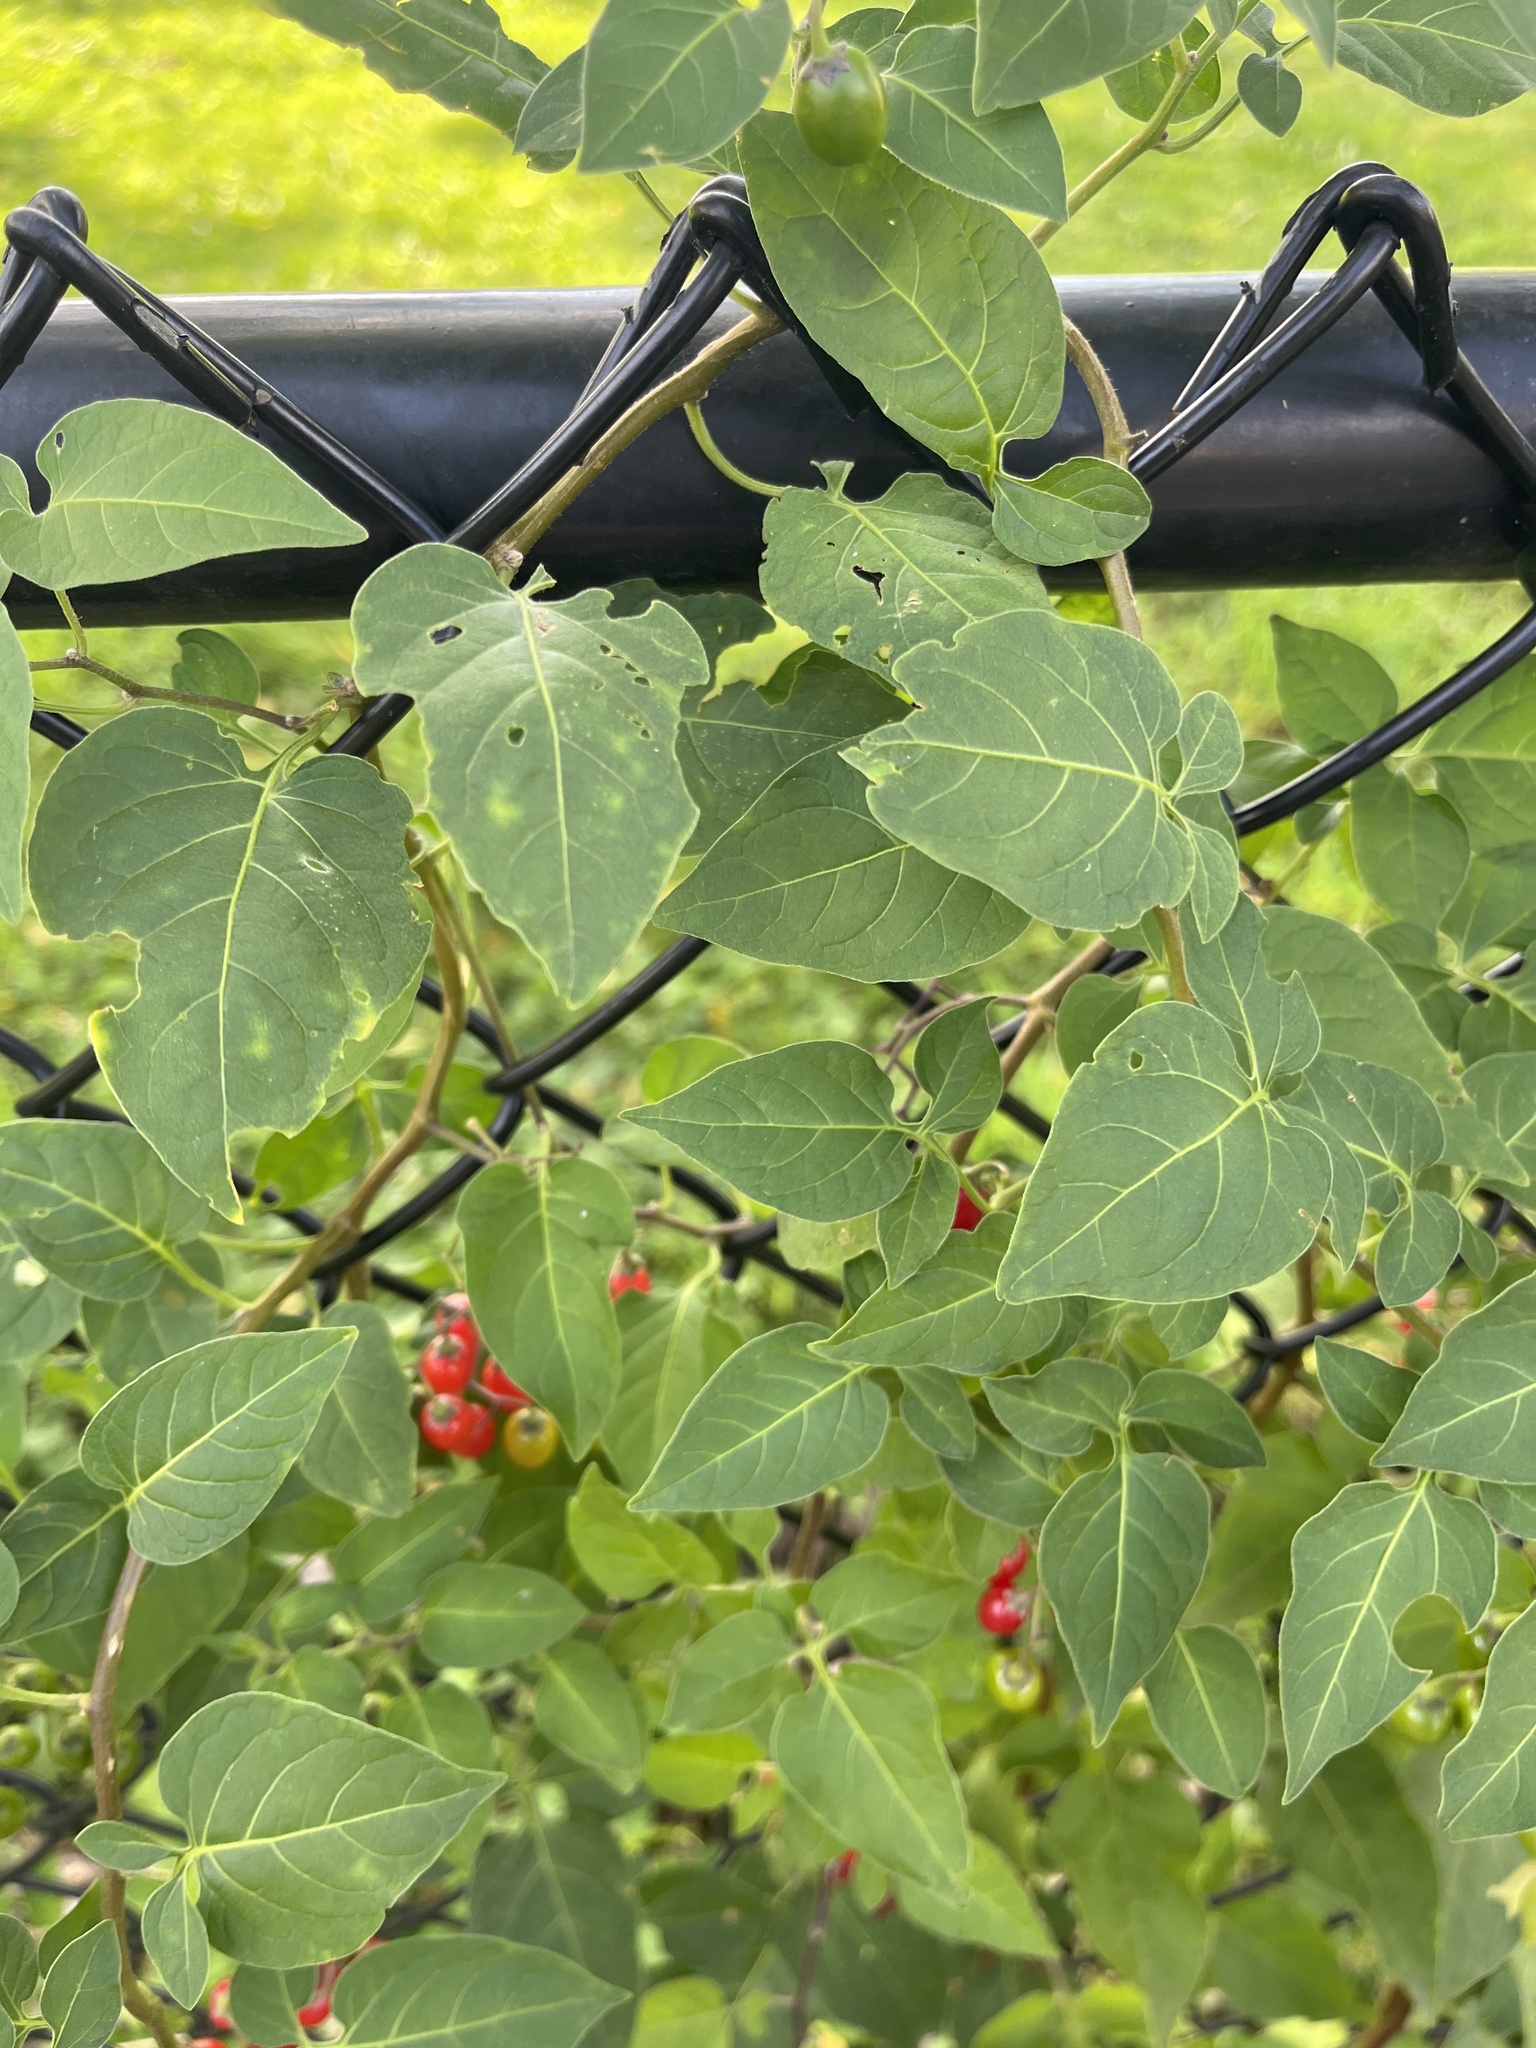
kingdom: Plantae
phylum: Tracheophyta
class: Magnoliopsida
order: Solanales
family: Solanaceae
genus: Solanum
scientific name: Solanum dulcamara
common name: Climbing nightshade
